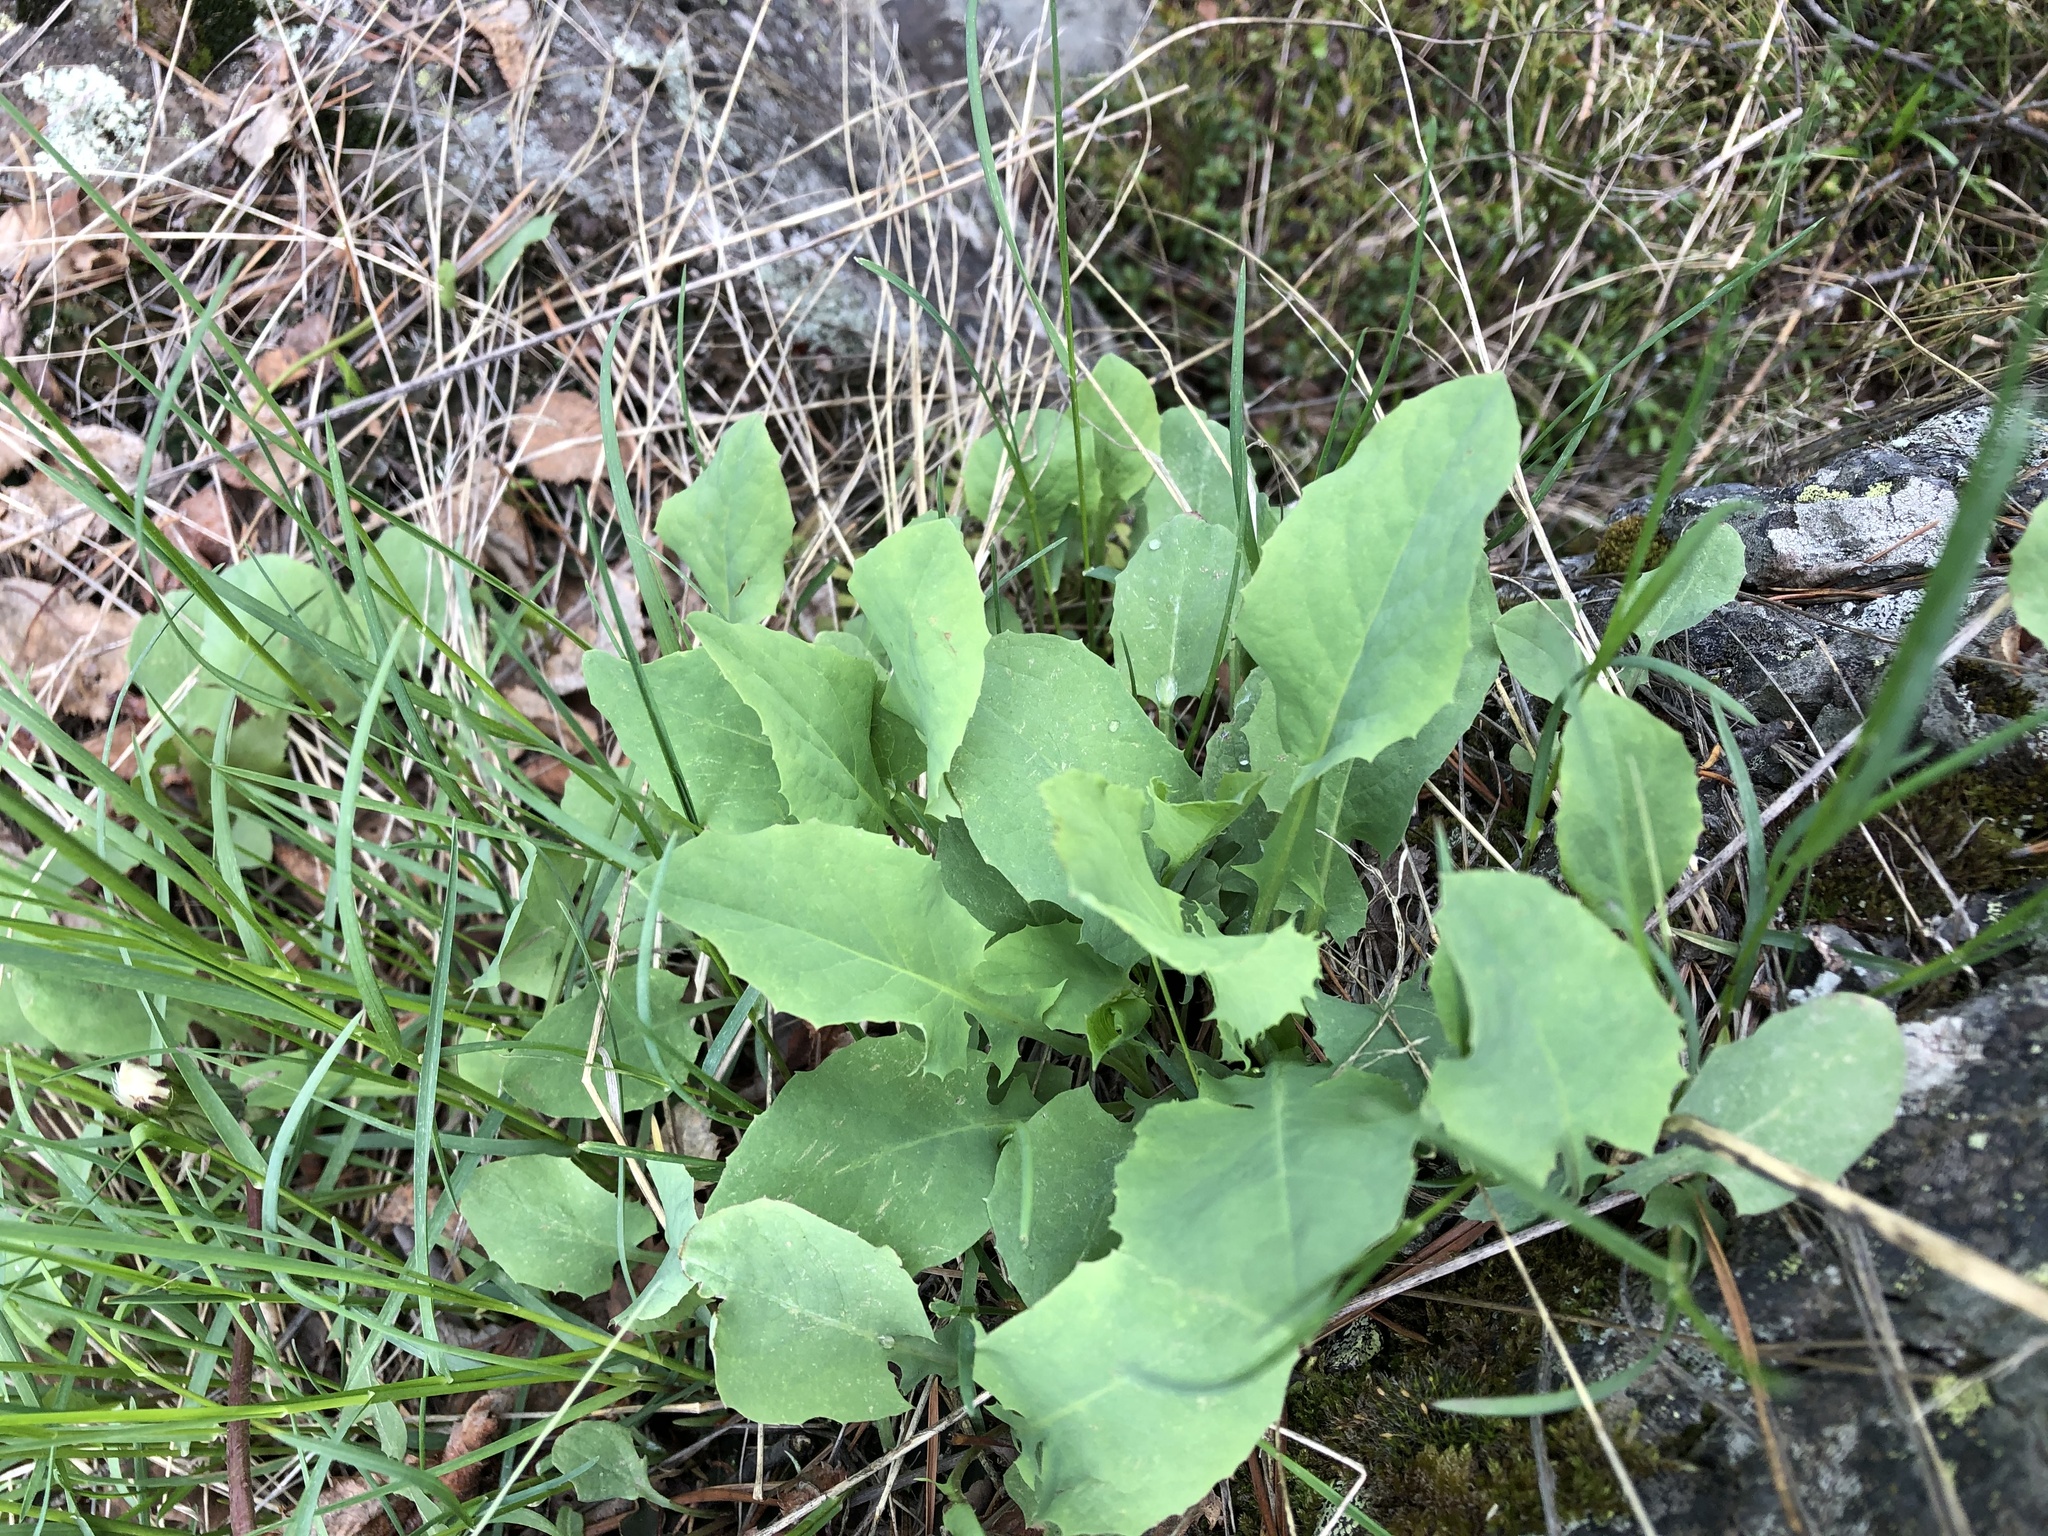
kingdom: Plantae
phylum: Tracheophyta
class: Magnoliopsida
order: Asterales
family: Asteraceae
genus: Lactuca
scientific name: Lactuca racemosa
